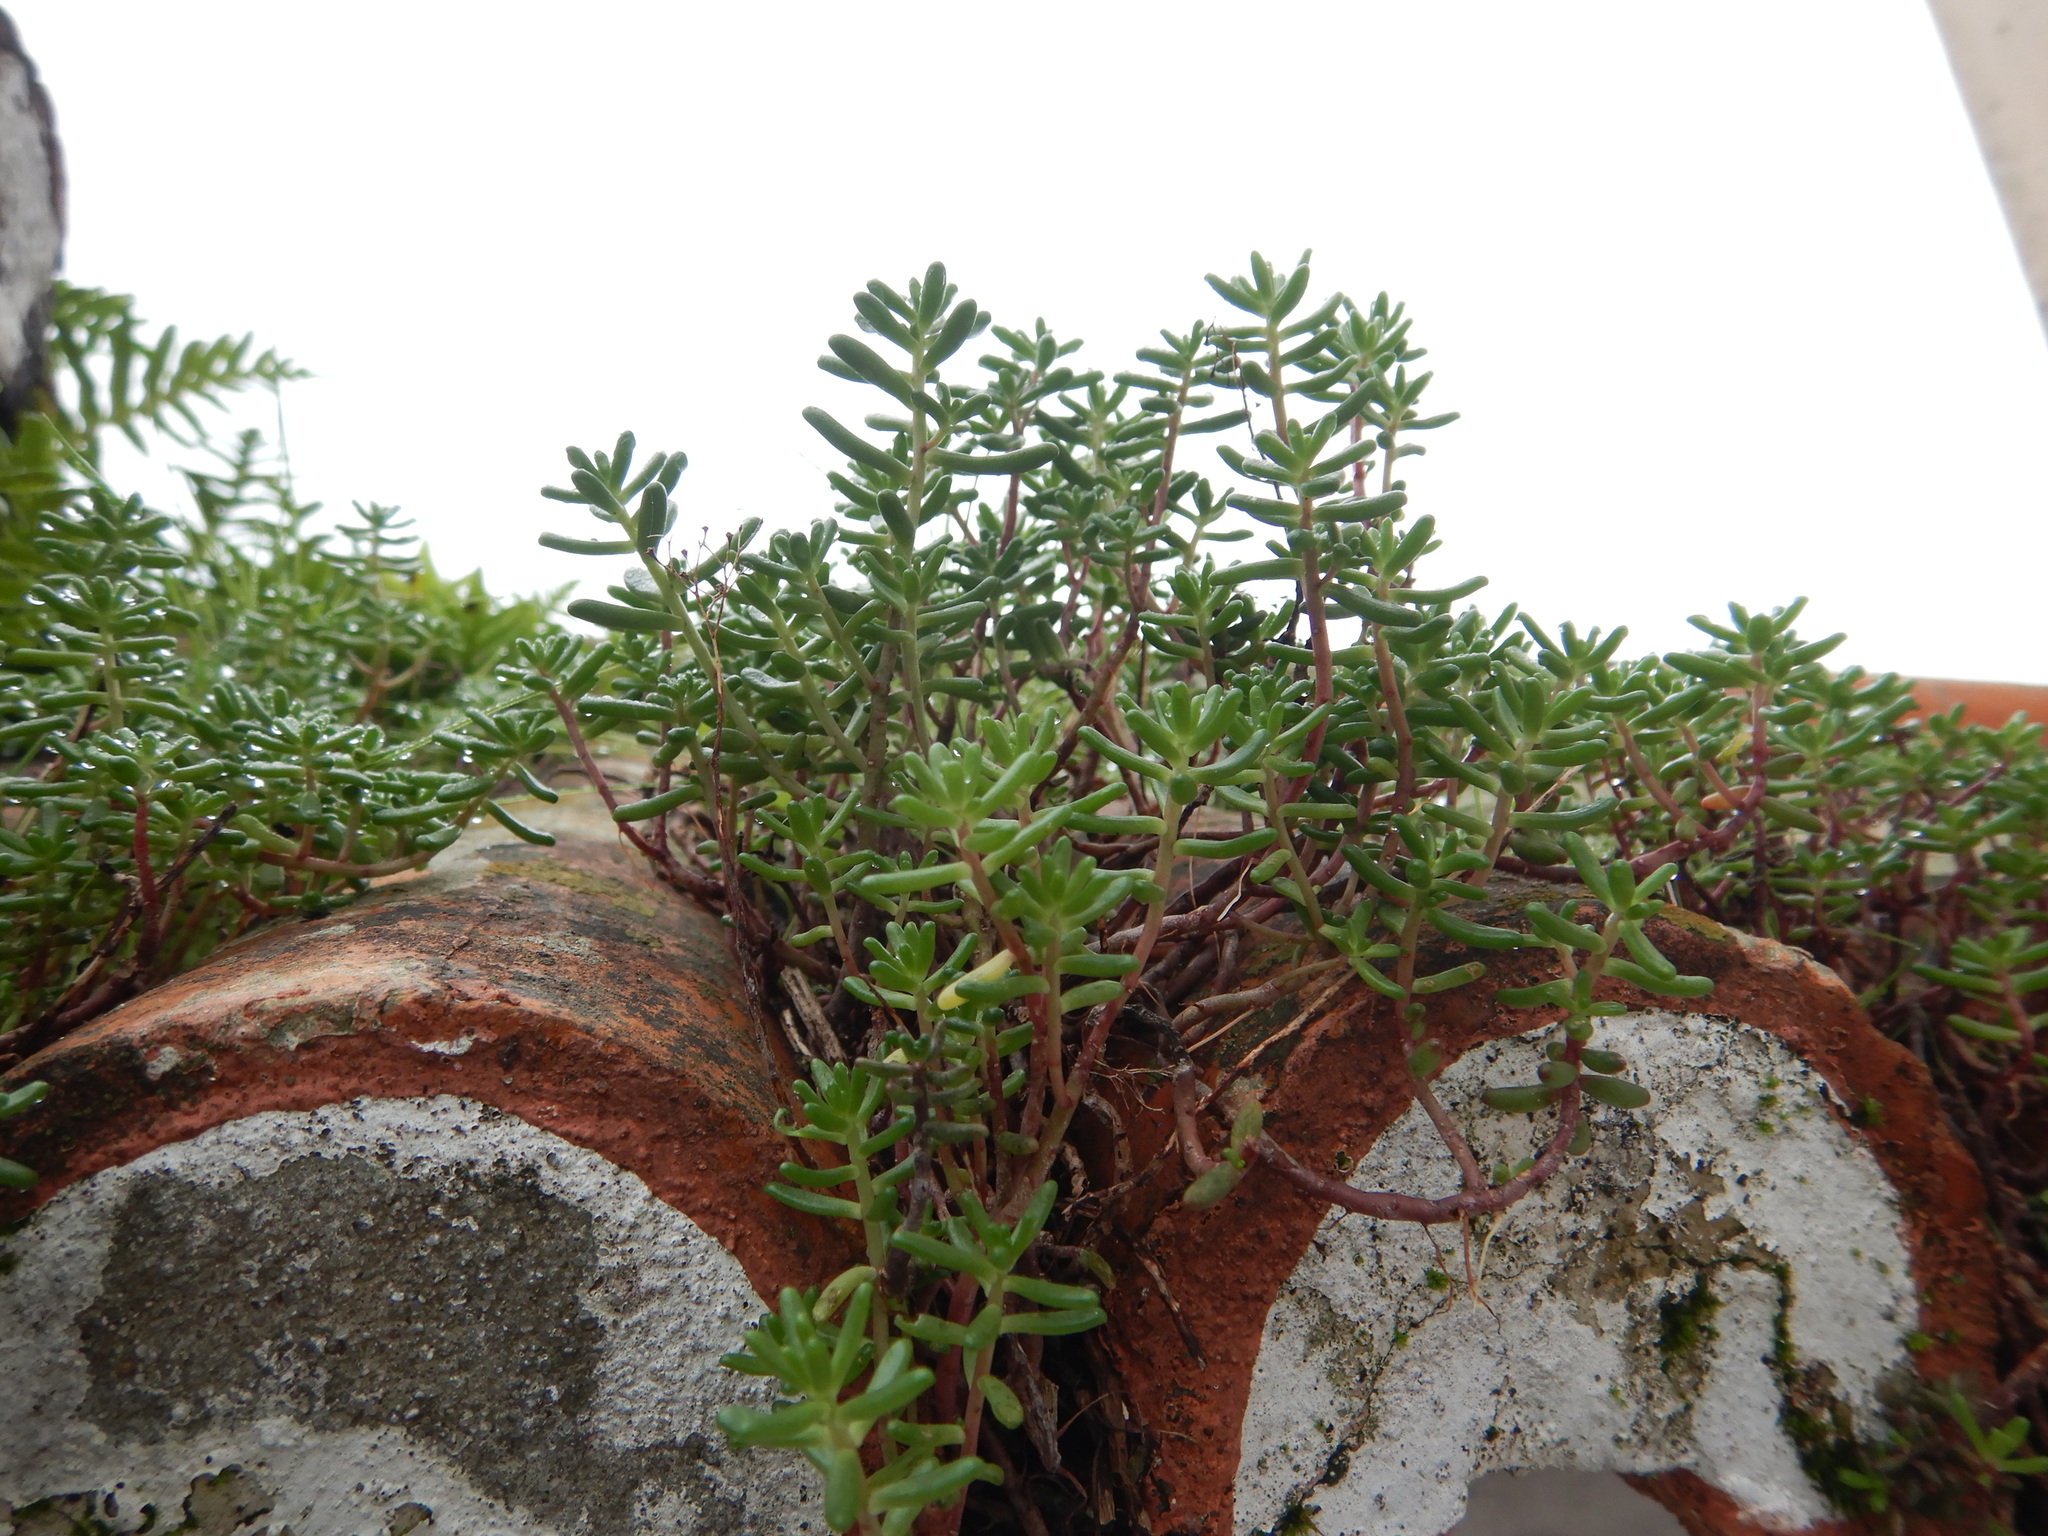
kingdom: Plantae
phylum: Tracheophyta
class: Magnoliopsida
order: Saxifragales
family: Crassulaceae
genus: Sedum
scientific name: Sedum album
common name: White stonecrop
